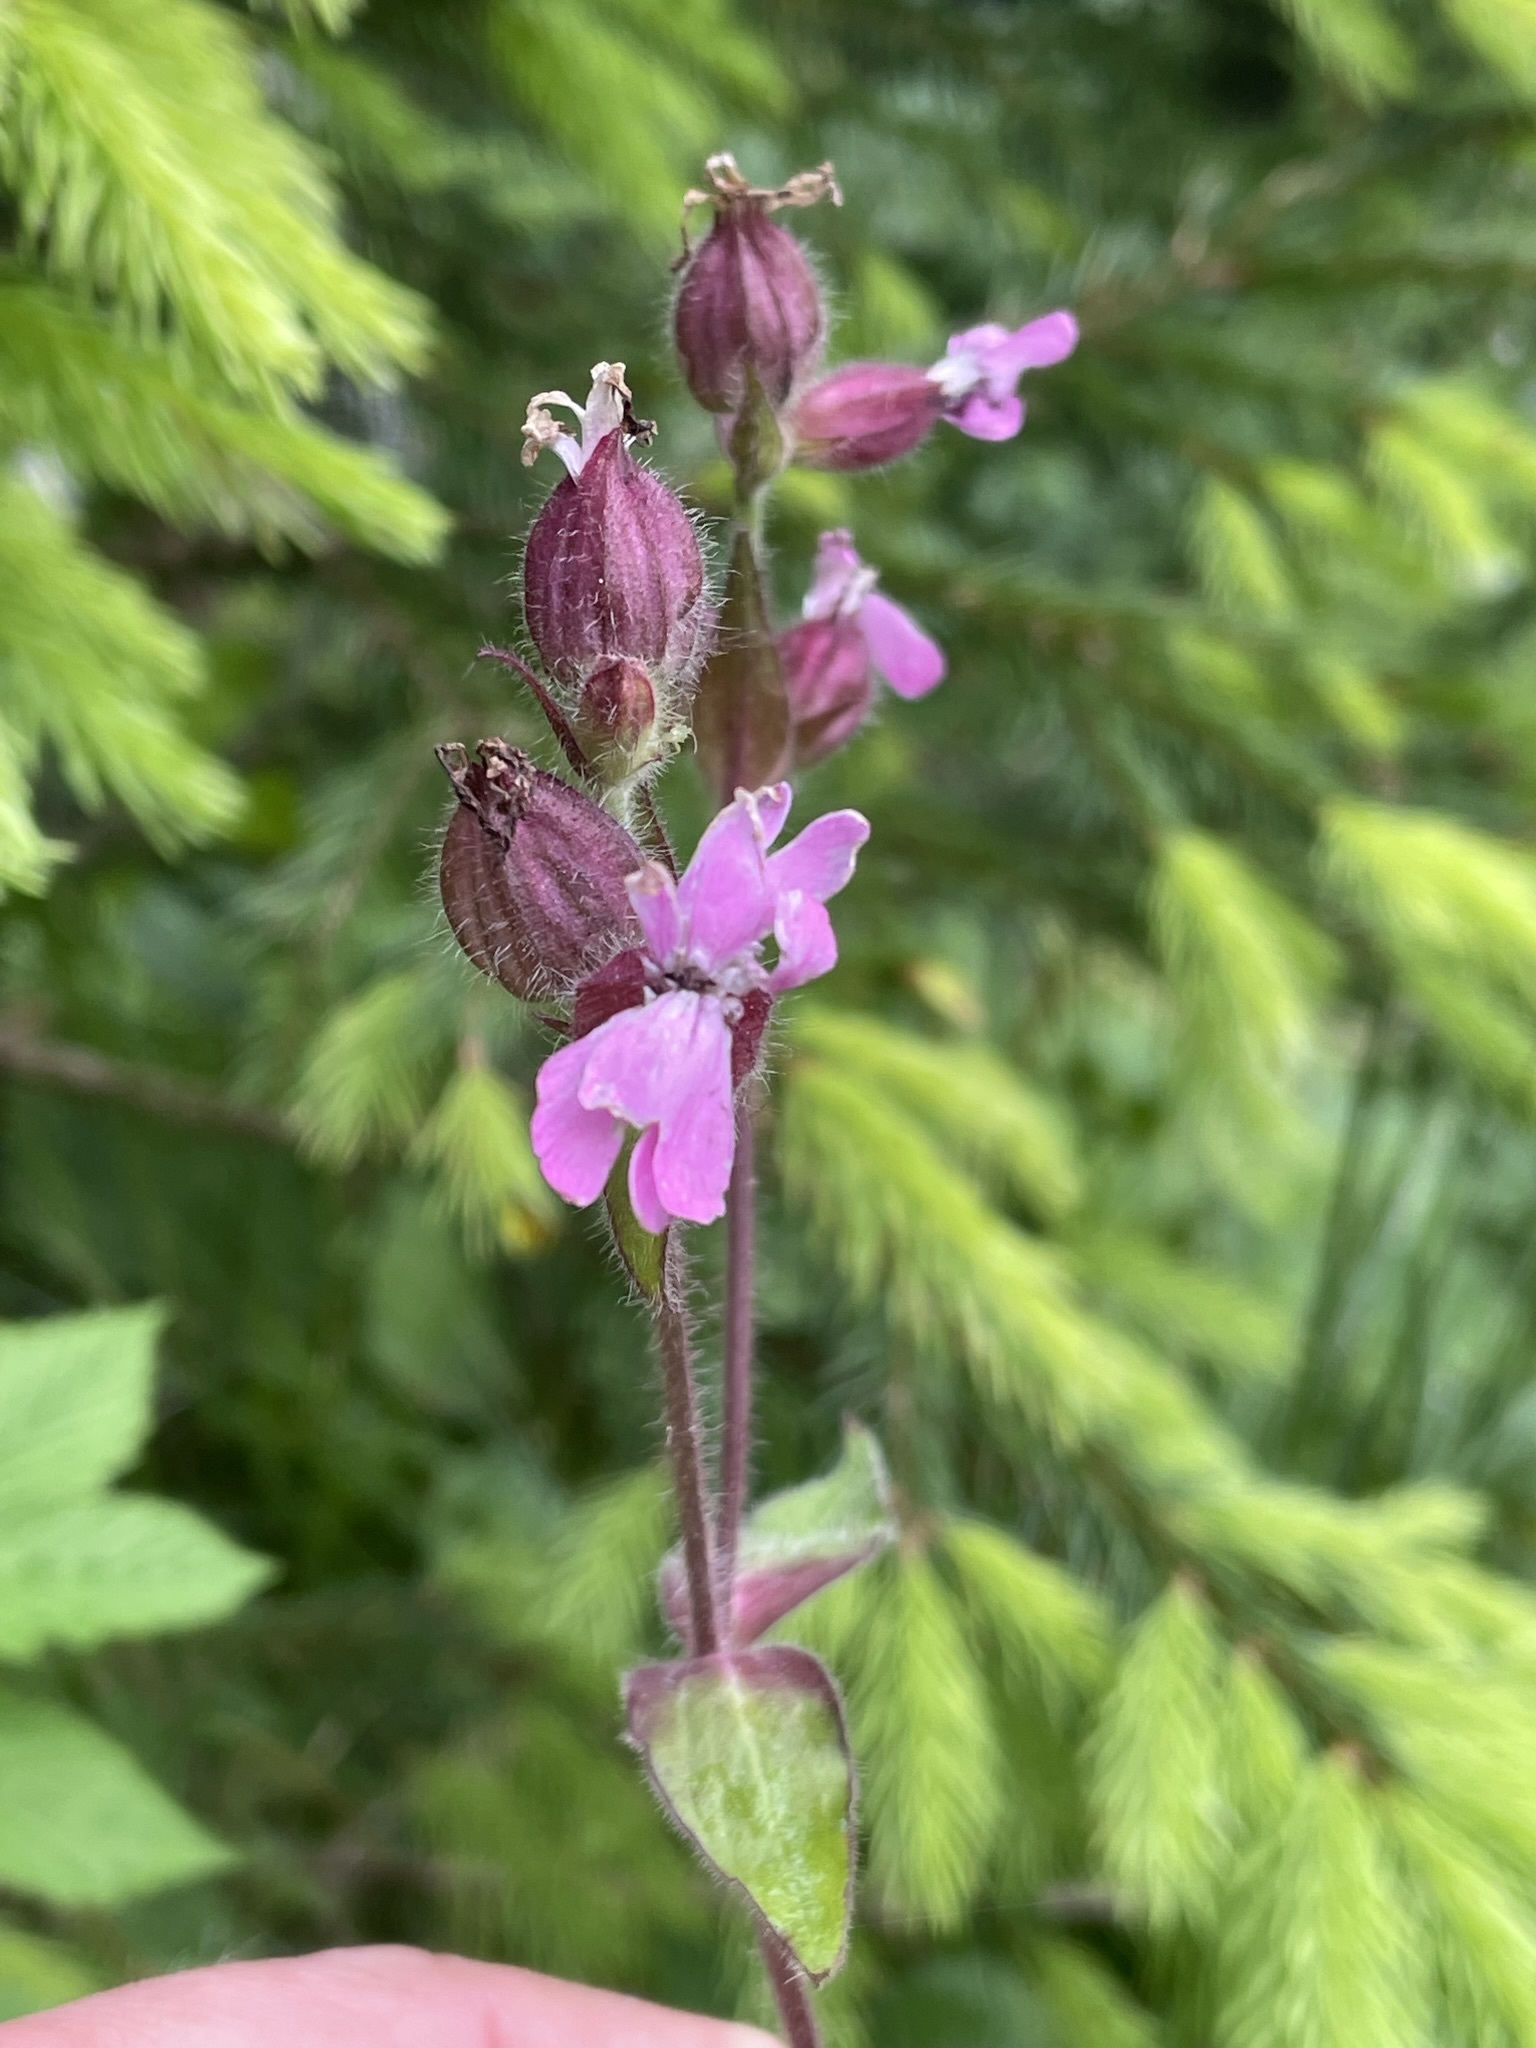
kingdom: Plantae
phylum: Tracheophyta
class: Magnoliopsida
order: Caryophyllales
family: Caryophyllaceae
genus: Silene
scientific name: Silene dioica
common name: Red campion
